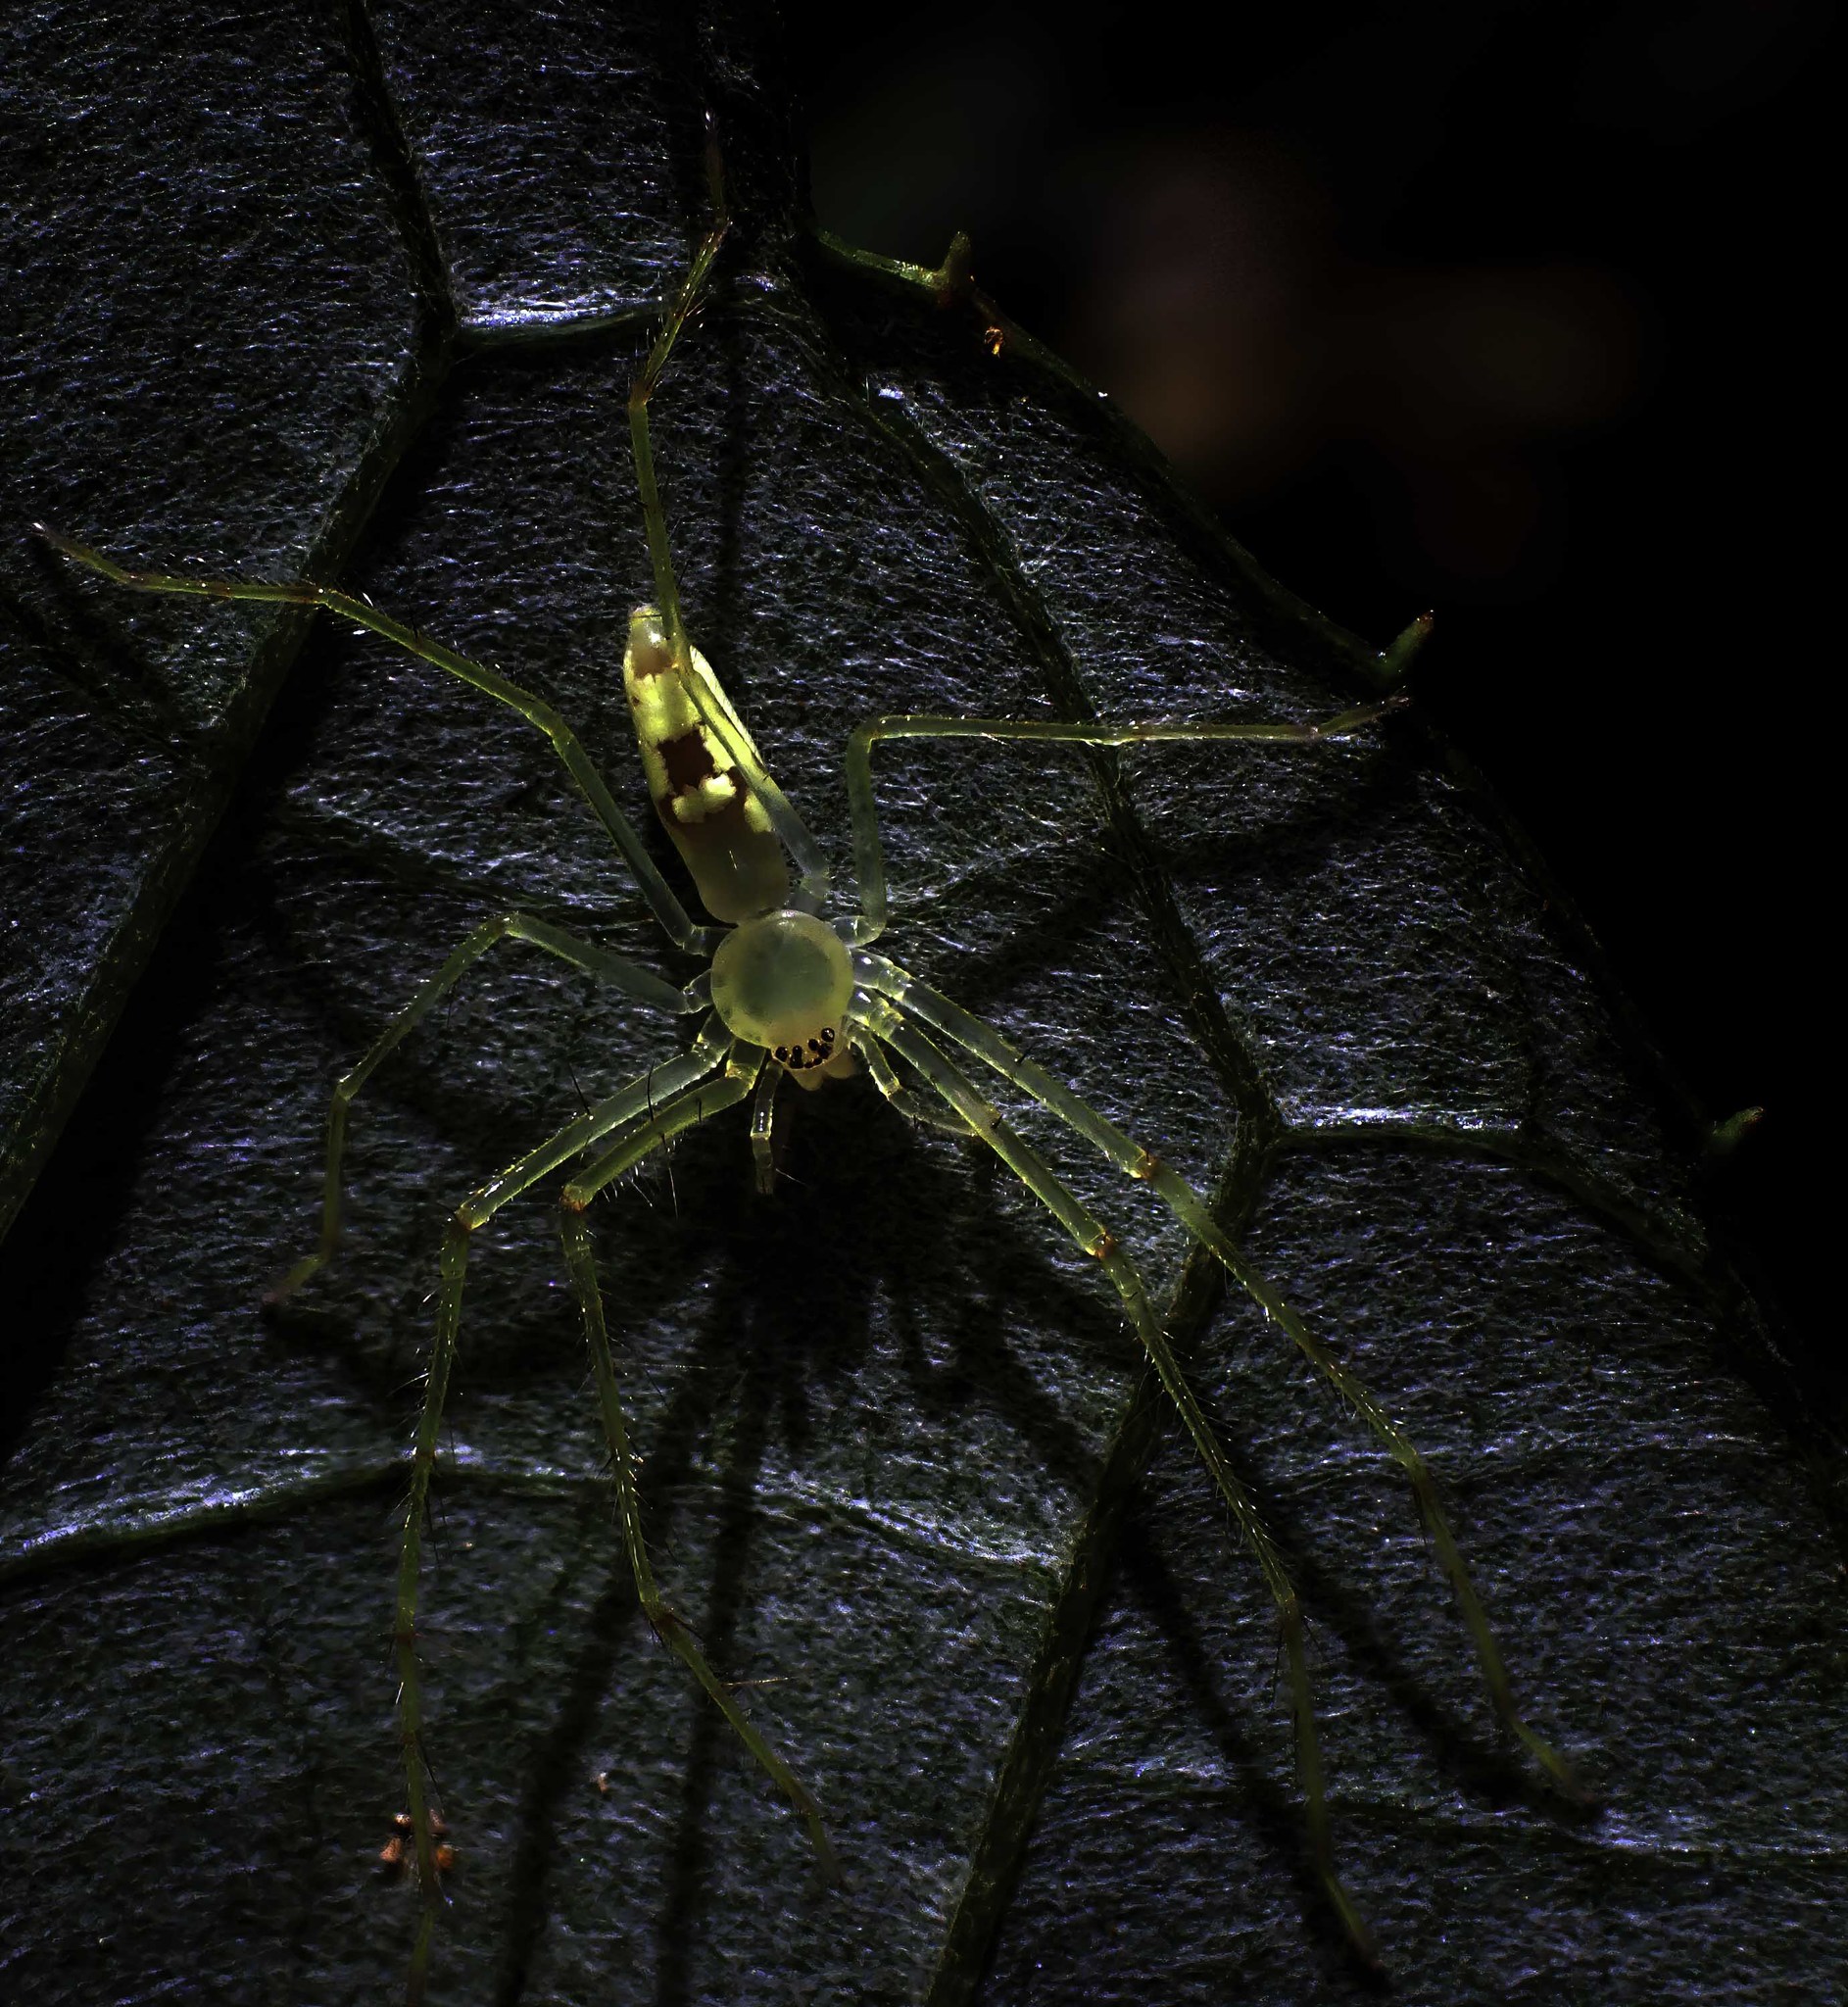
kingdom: Animalia
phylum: Arthropoda
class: Arachnida
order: Araneae
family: Sparassidae
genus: Anaptomecus
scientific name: Anaptomecus longiventris
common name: Huntsman spiders
